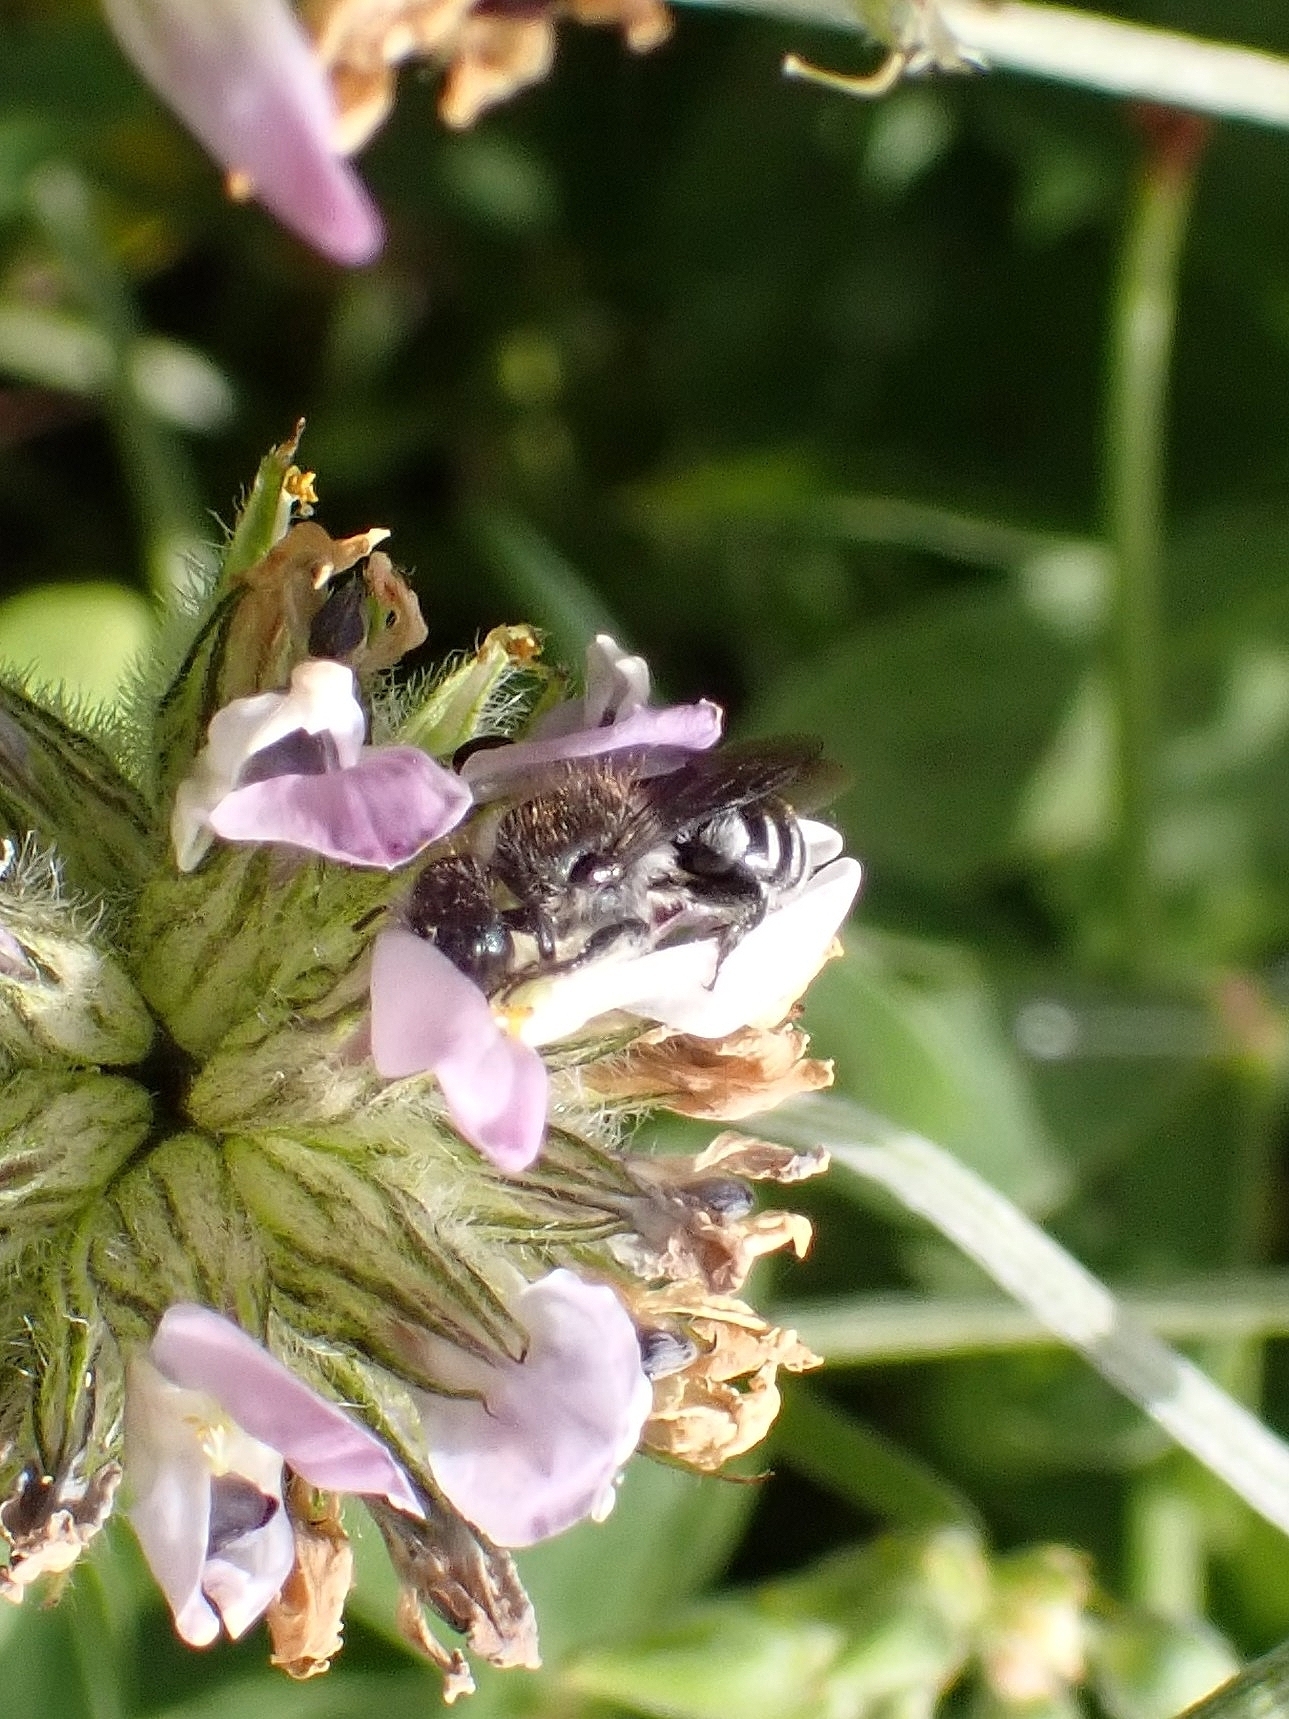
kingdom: Animalia
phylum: Arthropoda
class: Insecta
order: Hymenoptera
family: Megachilidae
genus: Osmia
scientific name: Osmia submicans
